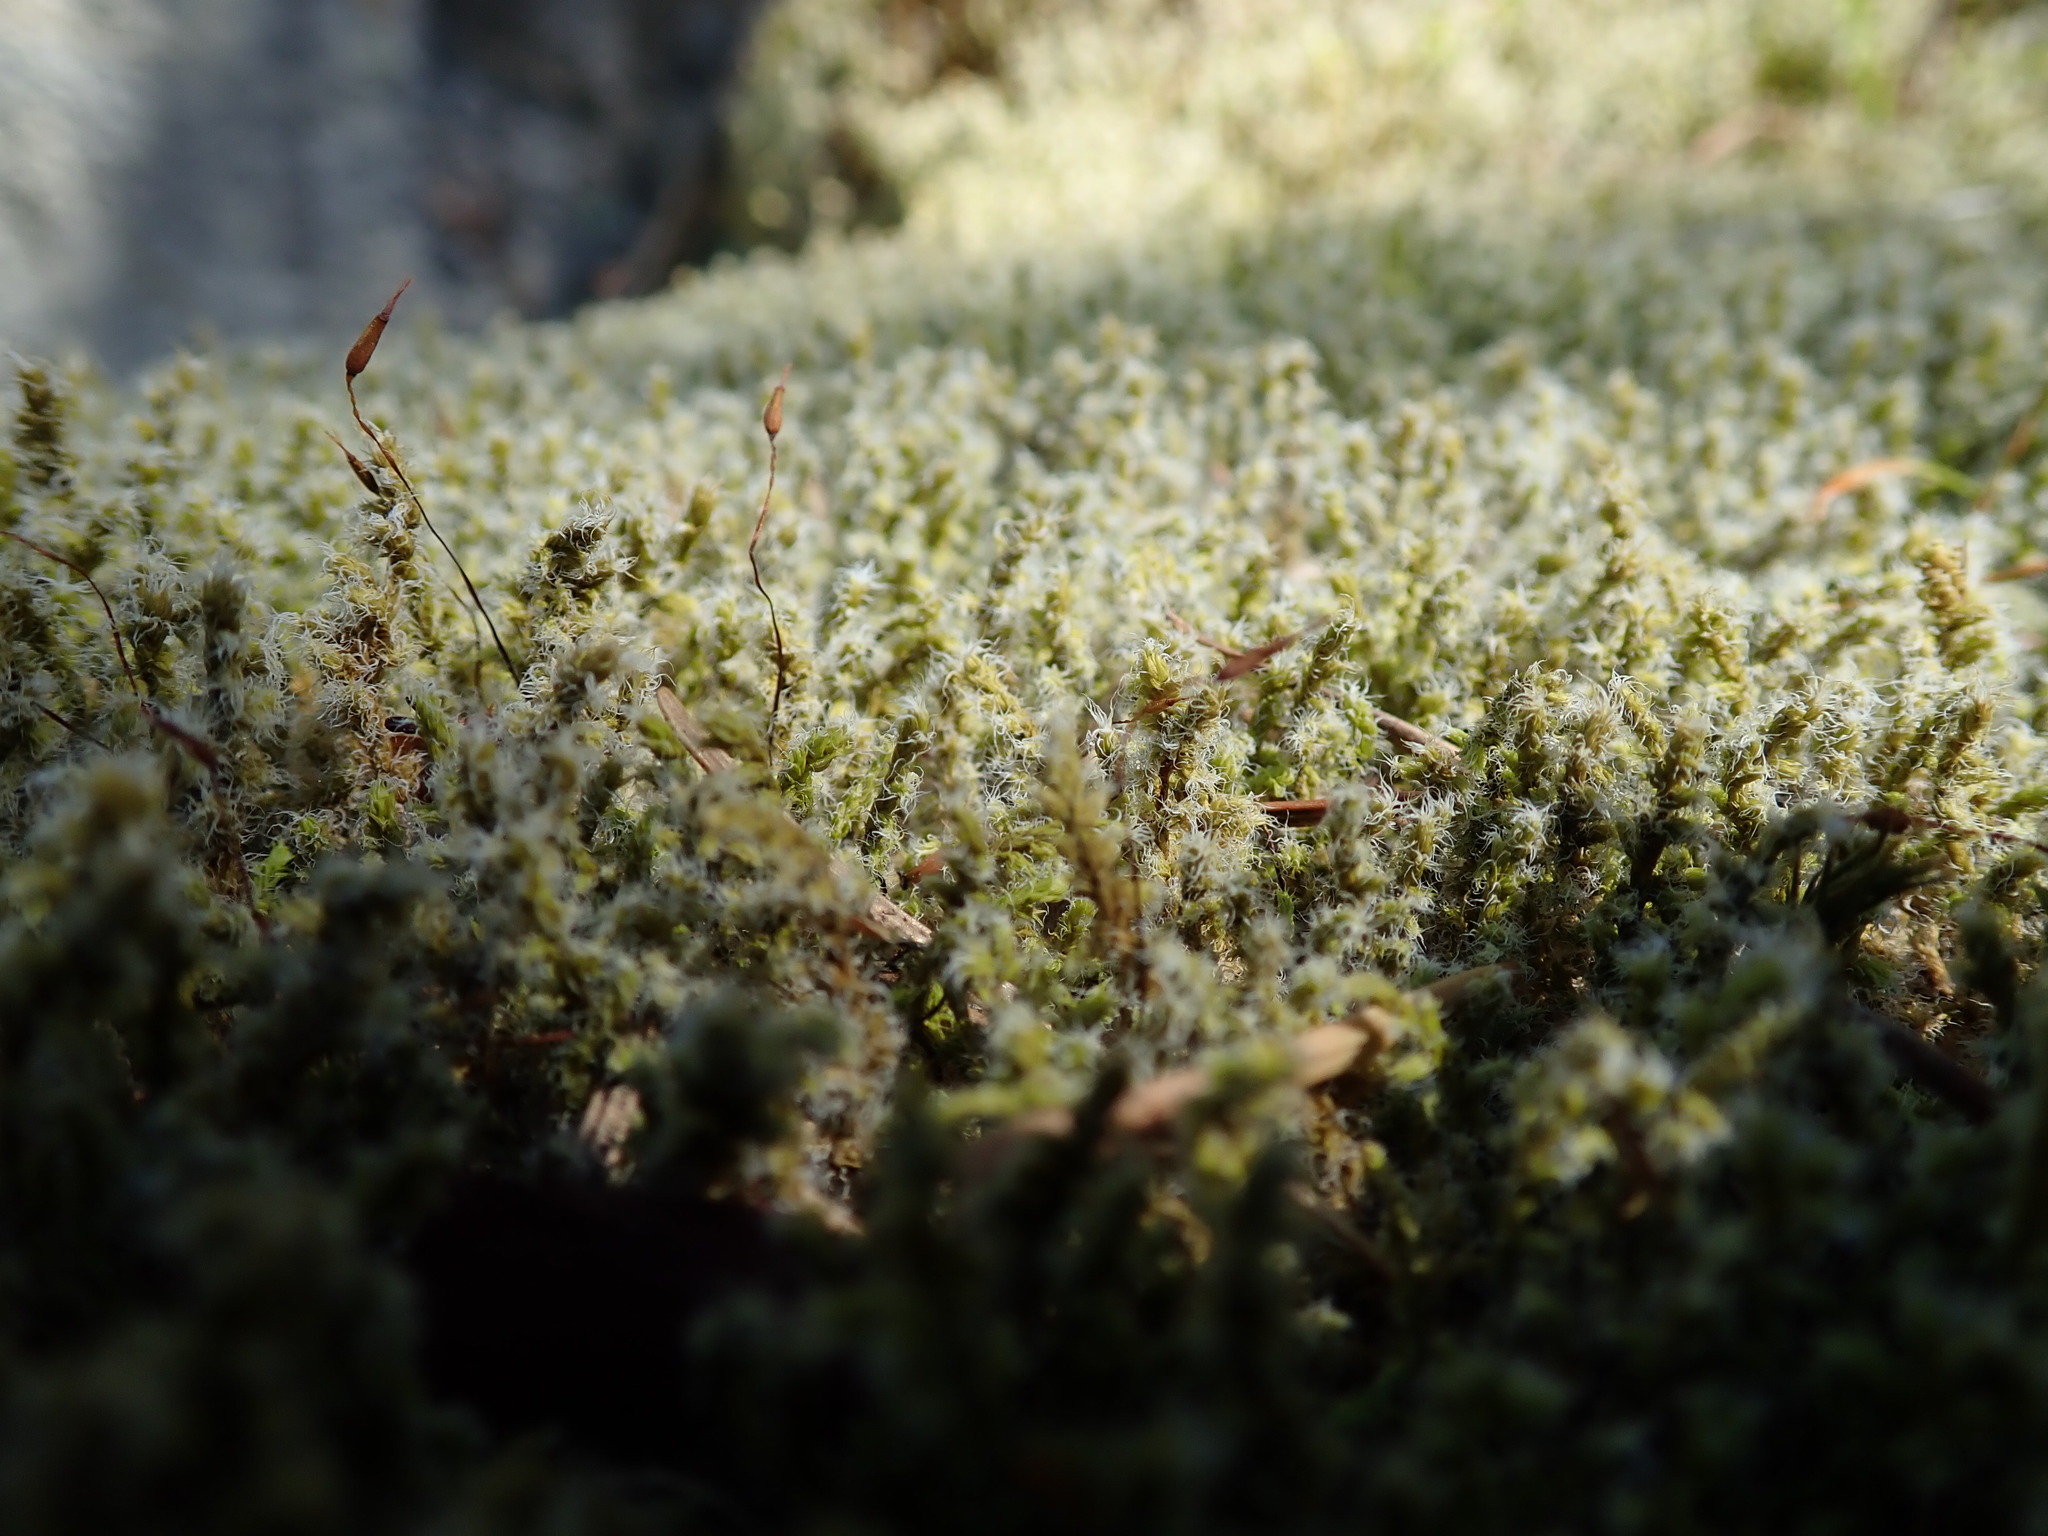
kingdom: Plantae
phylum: Bryophyta
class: Bryopsida
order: Grimmiales
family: Grimmiaceae
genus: Niphotrichum
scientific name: Niphotrichum canescens
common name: Hoary fringe-moss
